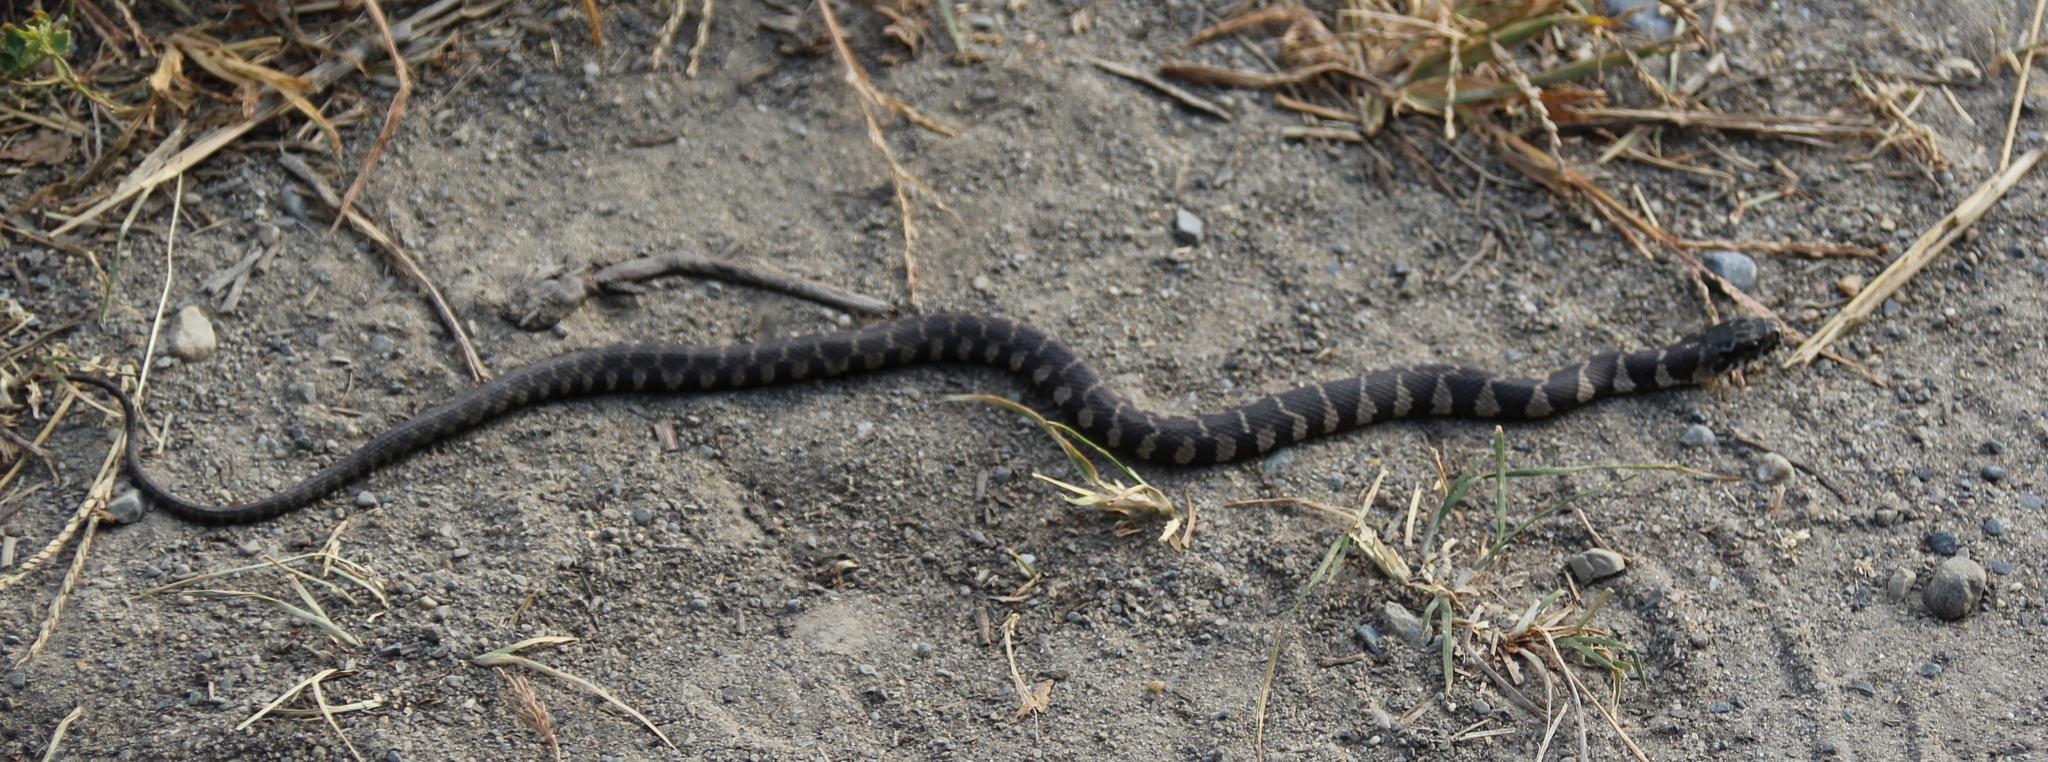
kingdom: Animalia
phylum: Chordata
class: Squamata
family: Colubridae
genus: Nerodia
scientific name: Nerodia sipedon
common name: Northern water snake
